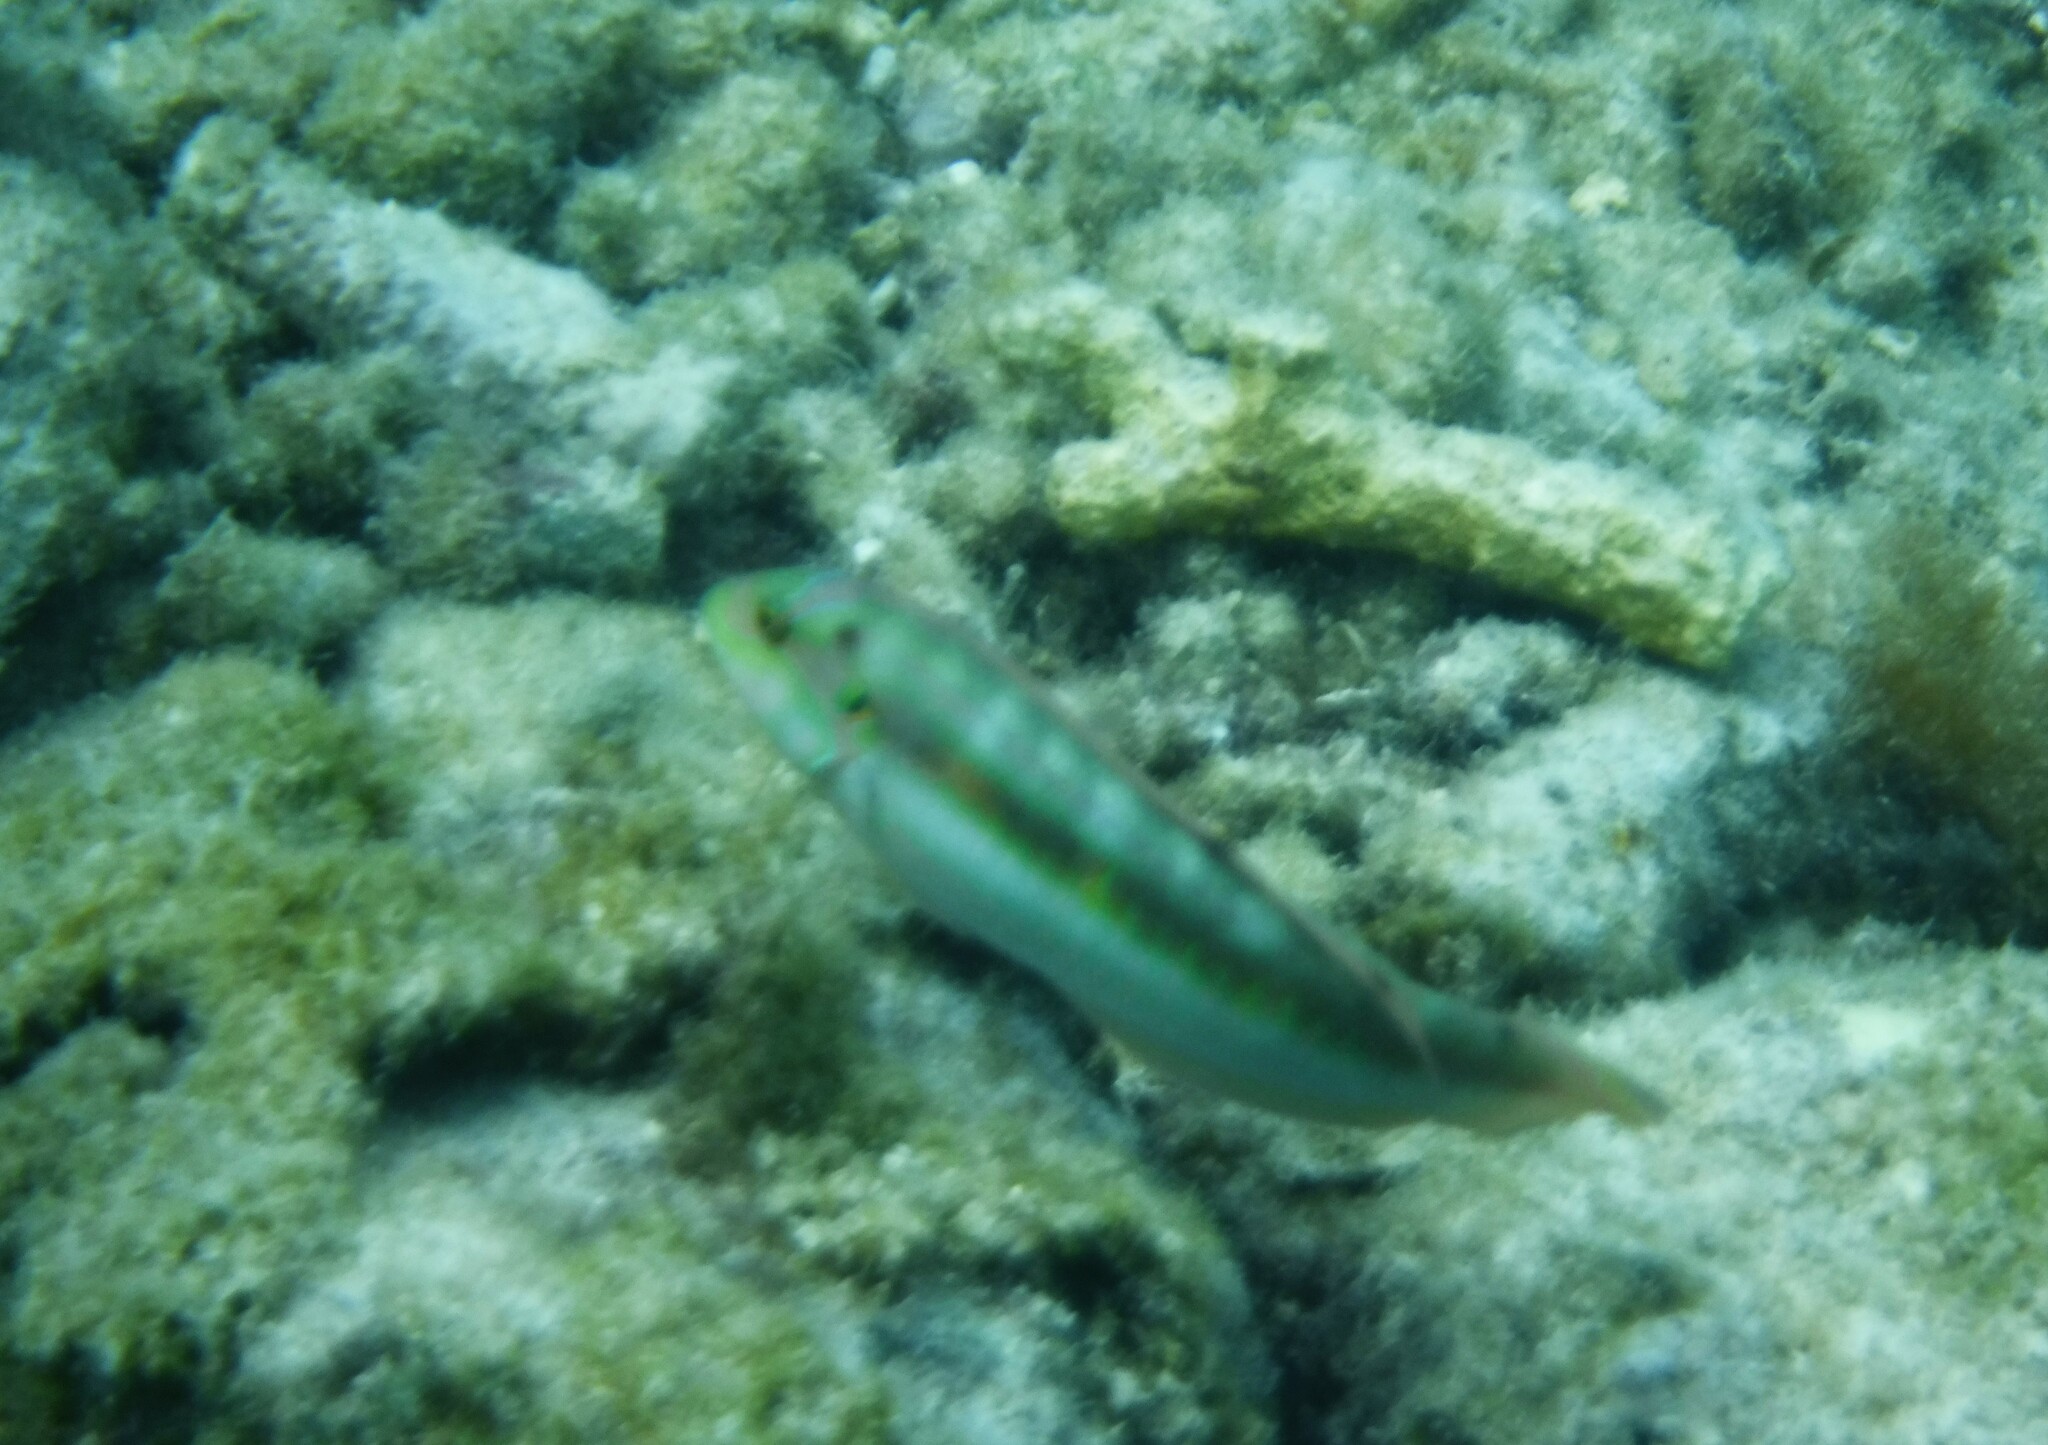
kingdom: Animalia
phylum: Chordata
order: Perciformes
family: Labridae
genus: Halichoeres
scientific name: Halichoeres bivittatus
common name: Slippery dick
